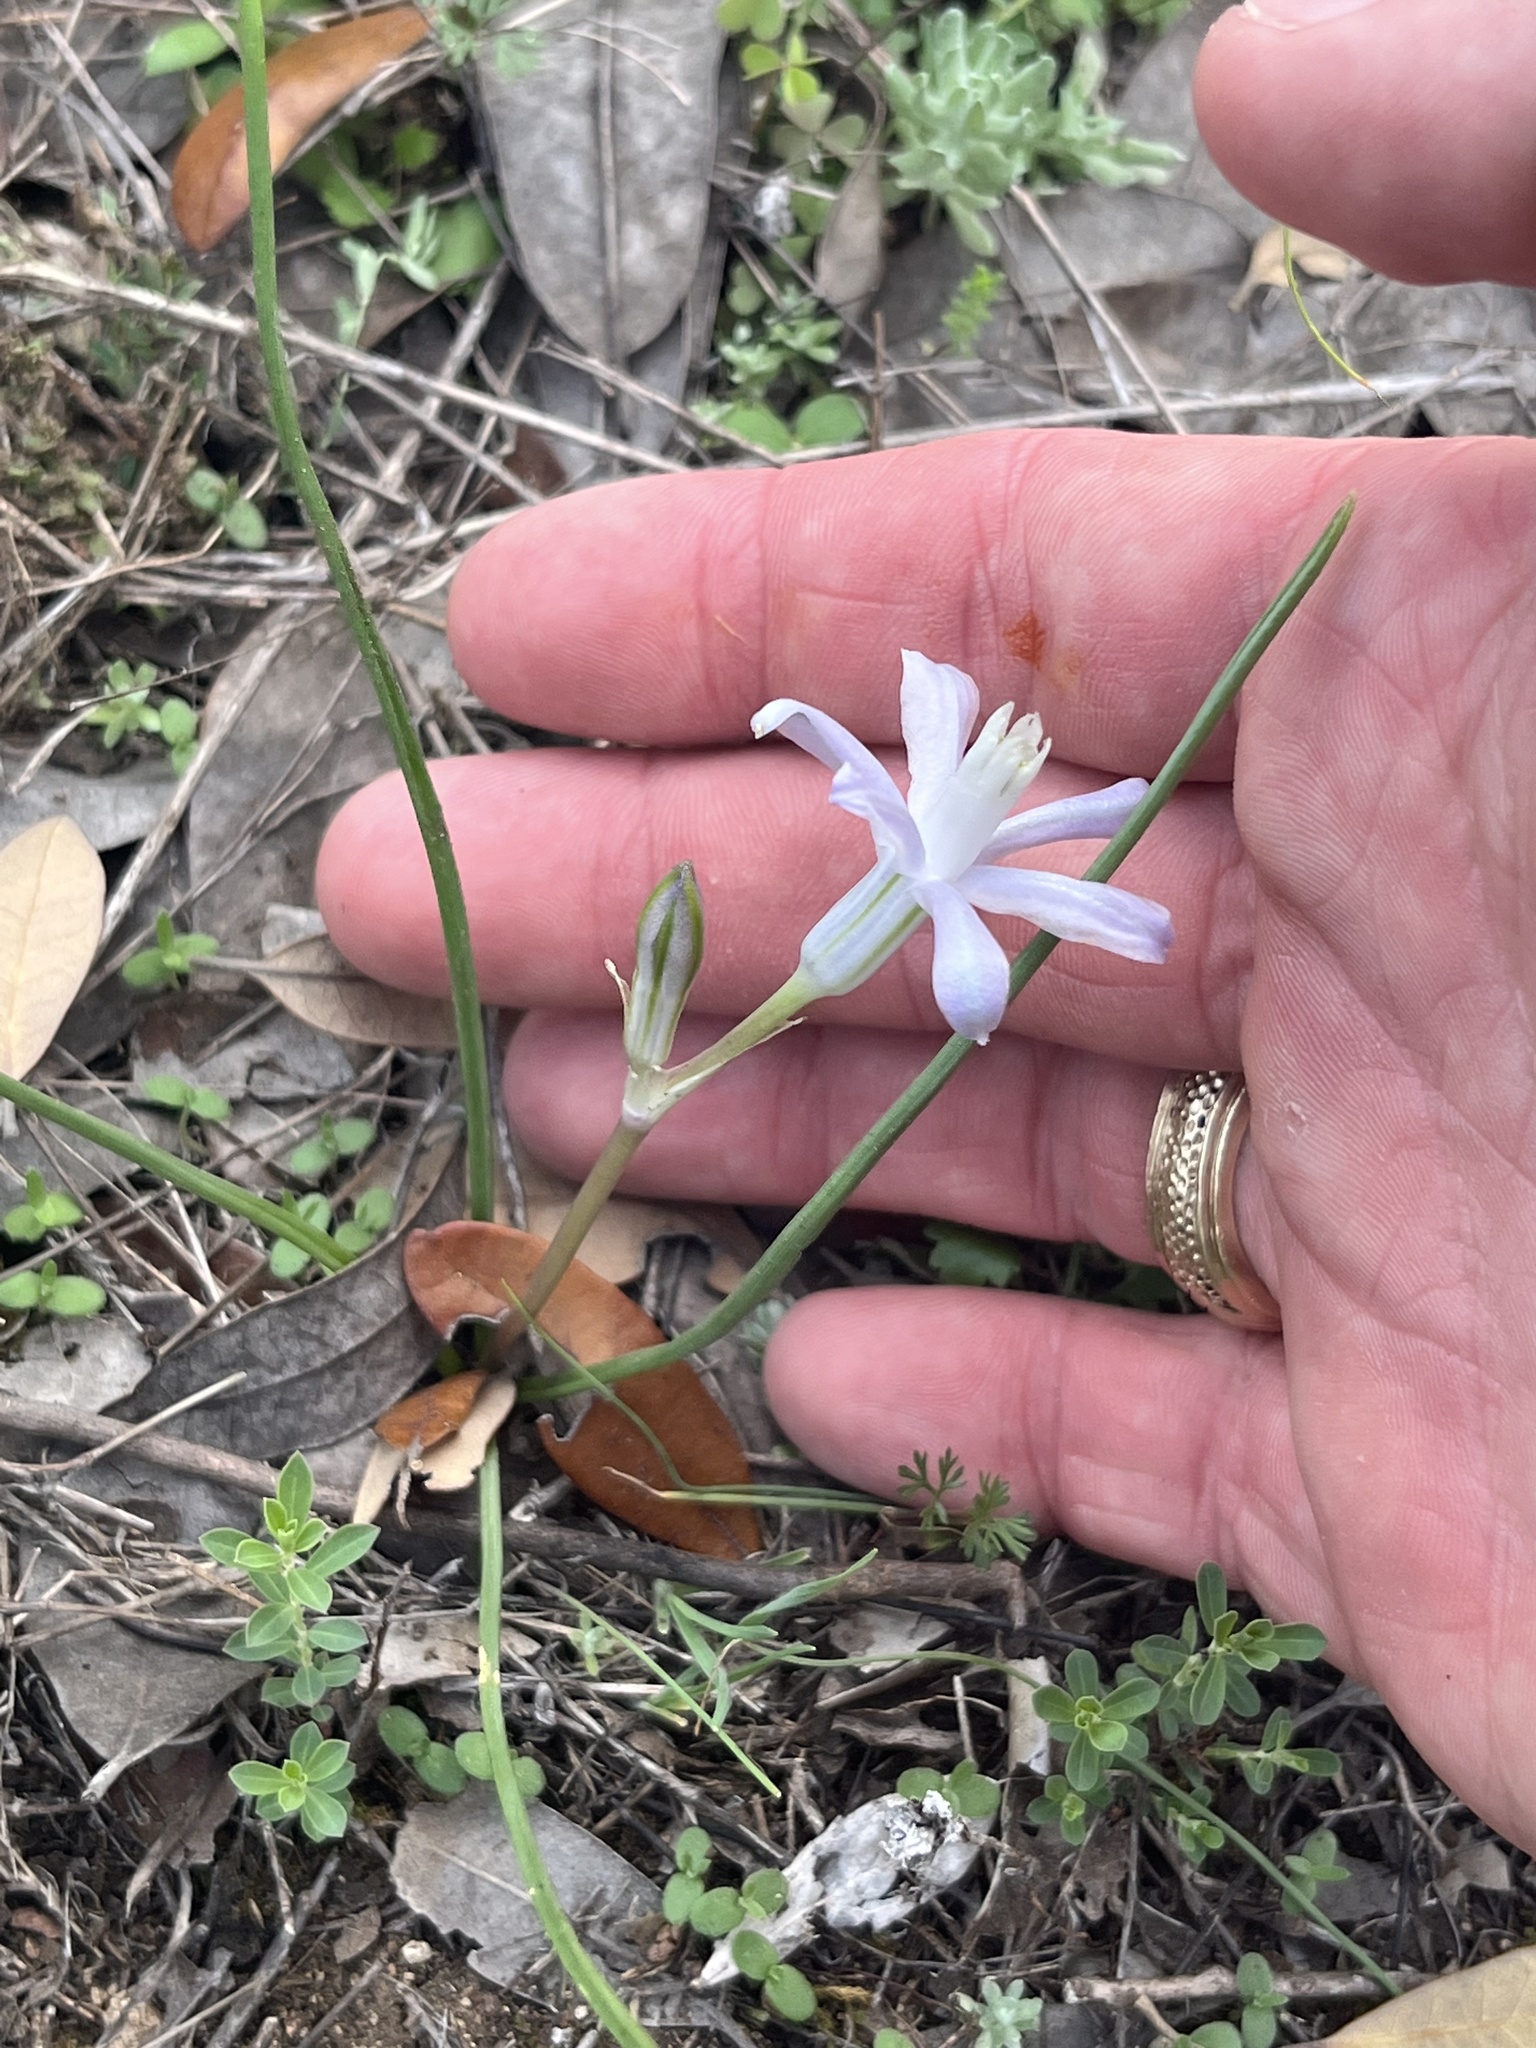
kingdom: Plantae
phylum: Tracheophyta
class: Liliopsida
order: Asparagales
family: Asparagaceae
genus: Androstephium
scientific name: Androstephium coeruleum
